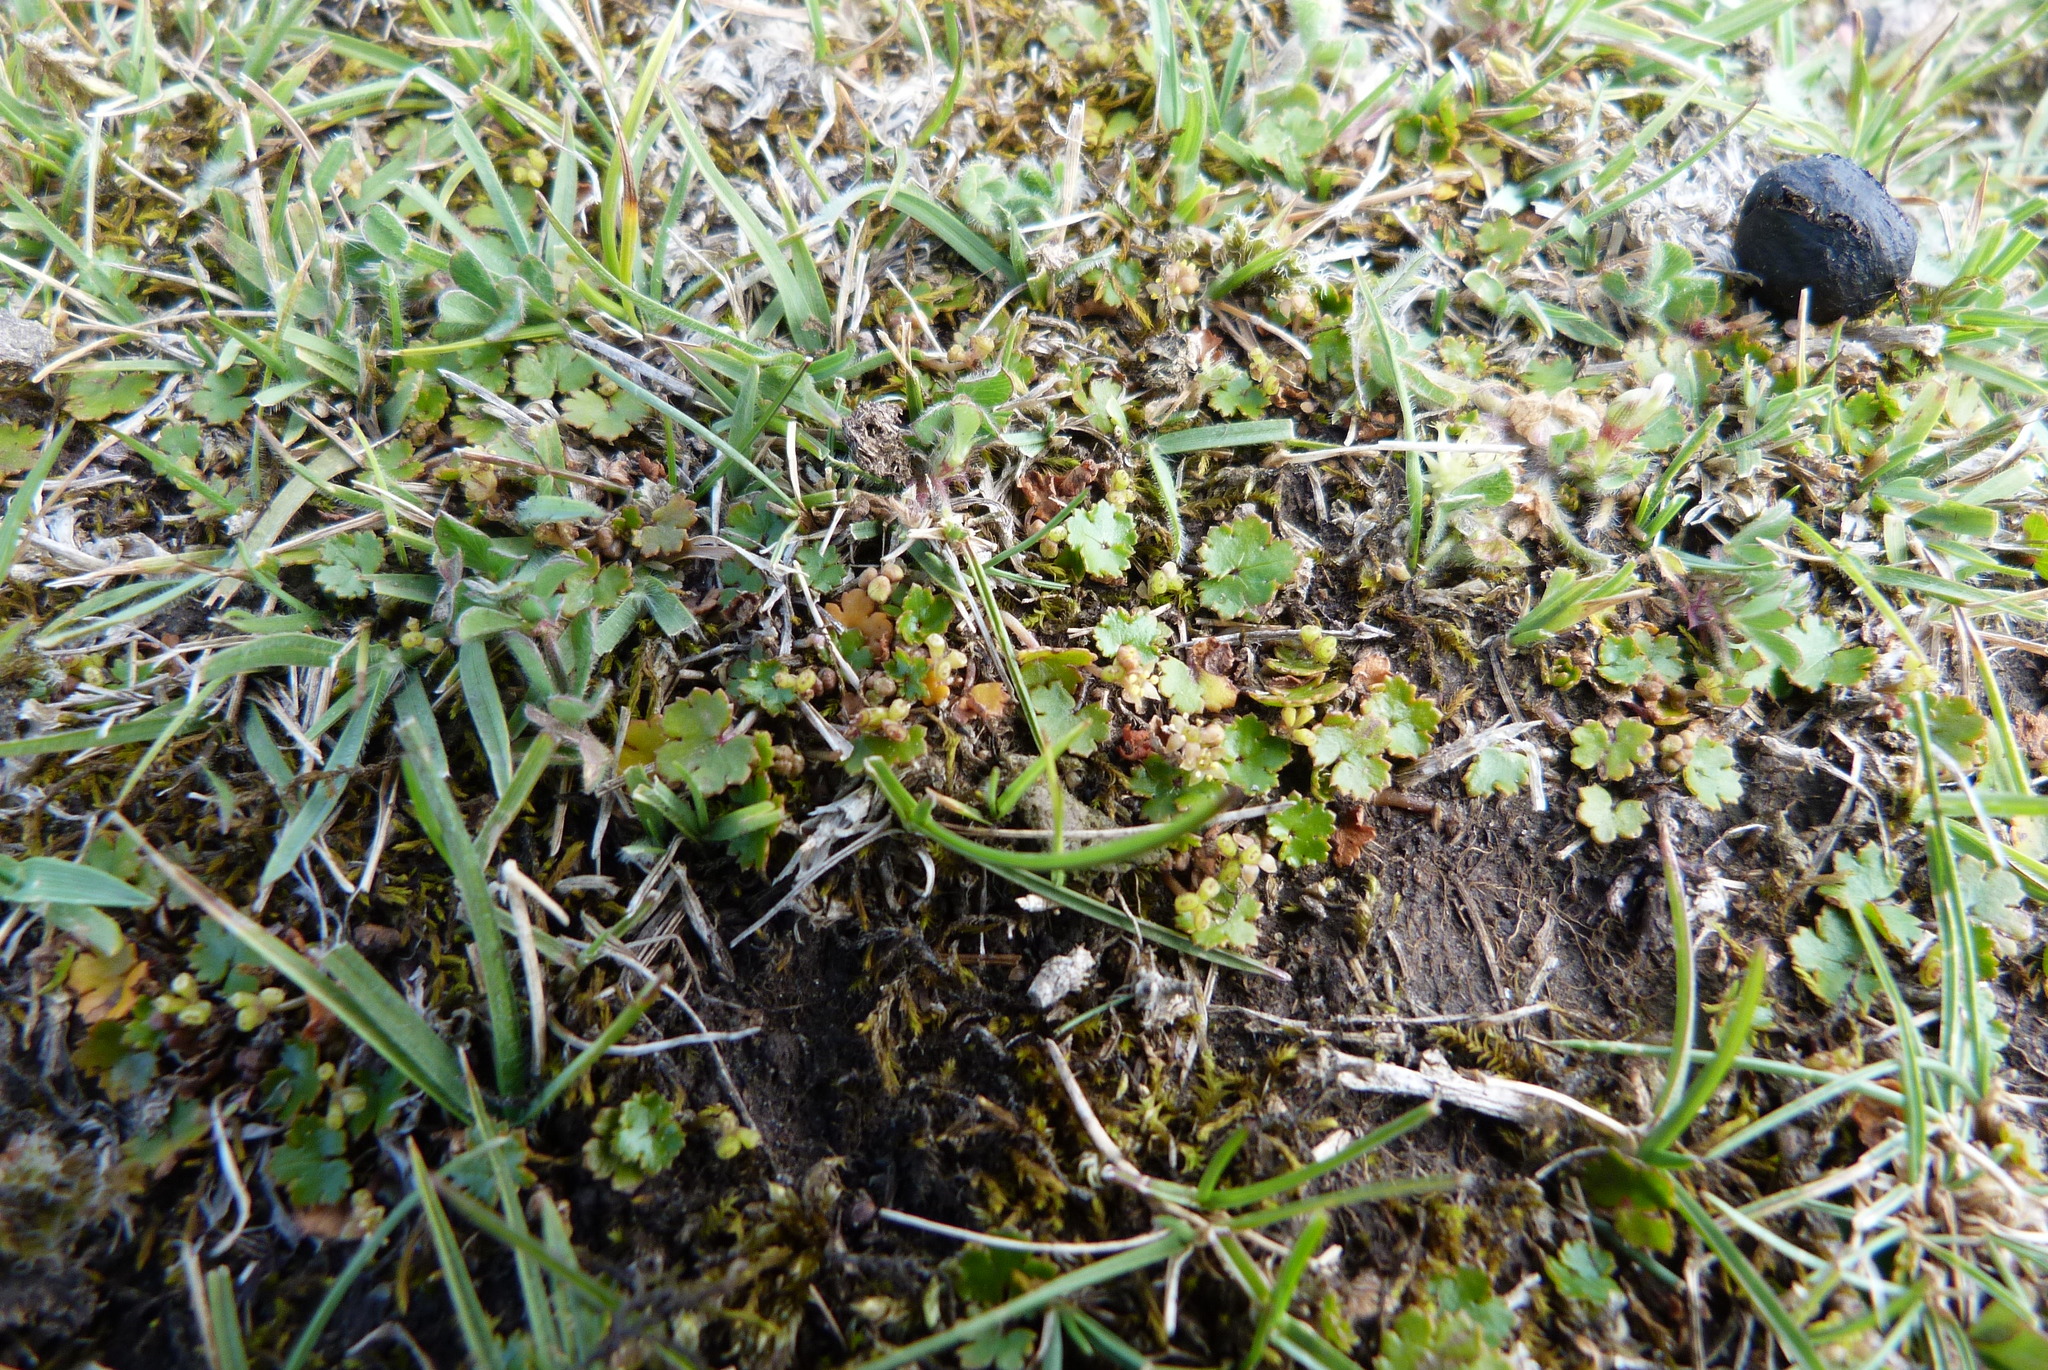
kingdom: Plantae
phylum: Tracheophyta
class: Magnoliopsida
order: Apiales
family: Araliaceae
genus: Hydrocotyle
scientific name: Hydrocotyle microphylla
